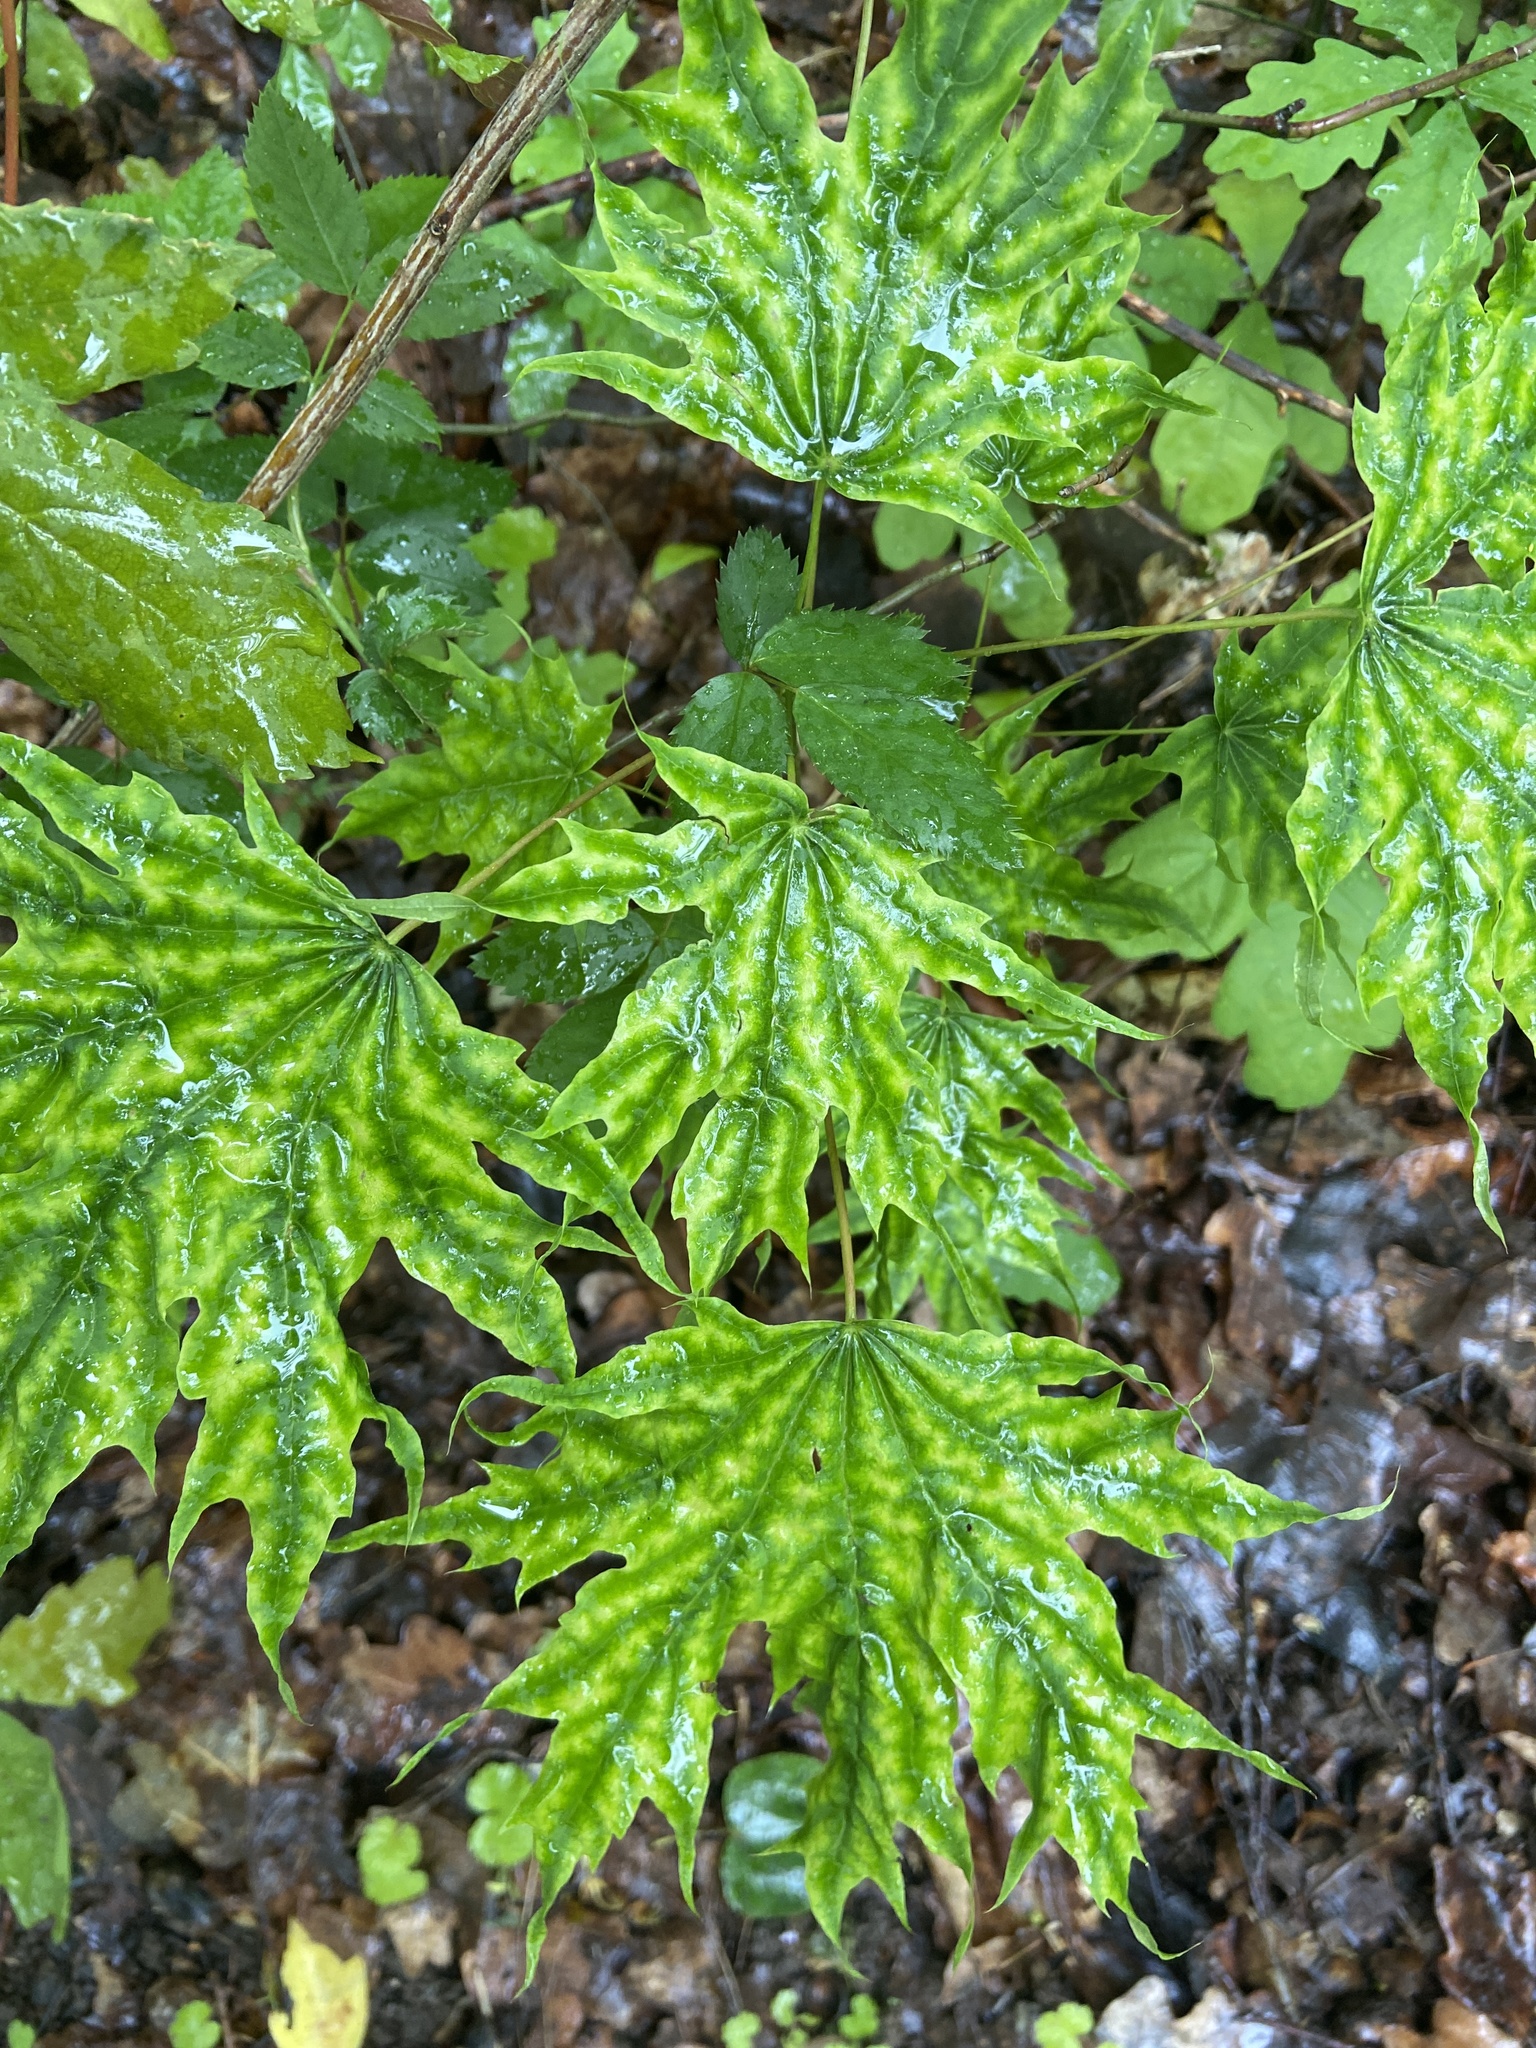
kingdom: Plantae
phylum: Tracheophyta
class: Magnoliopsida
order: Sapindales
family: Sapindaceae
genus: Acer
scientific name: Acer platanoides
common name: Norway maple
